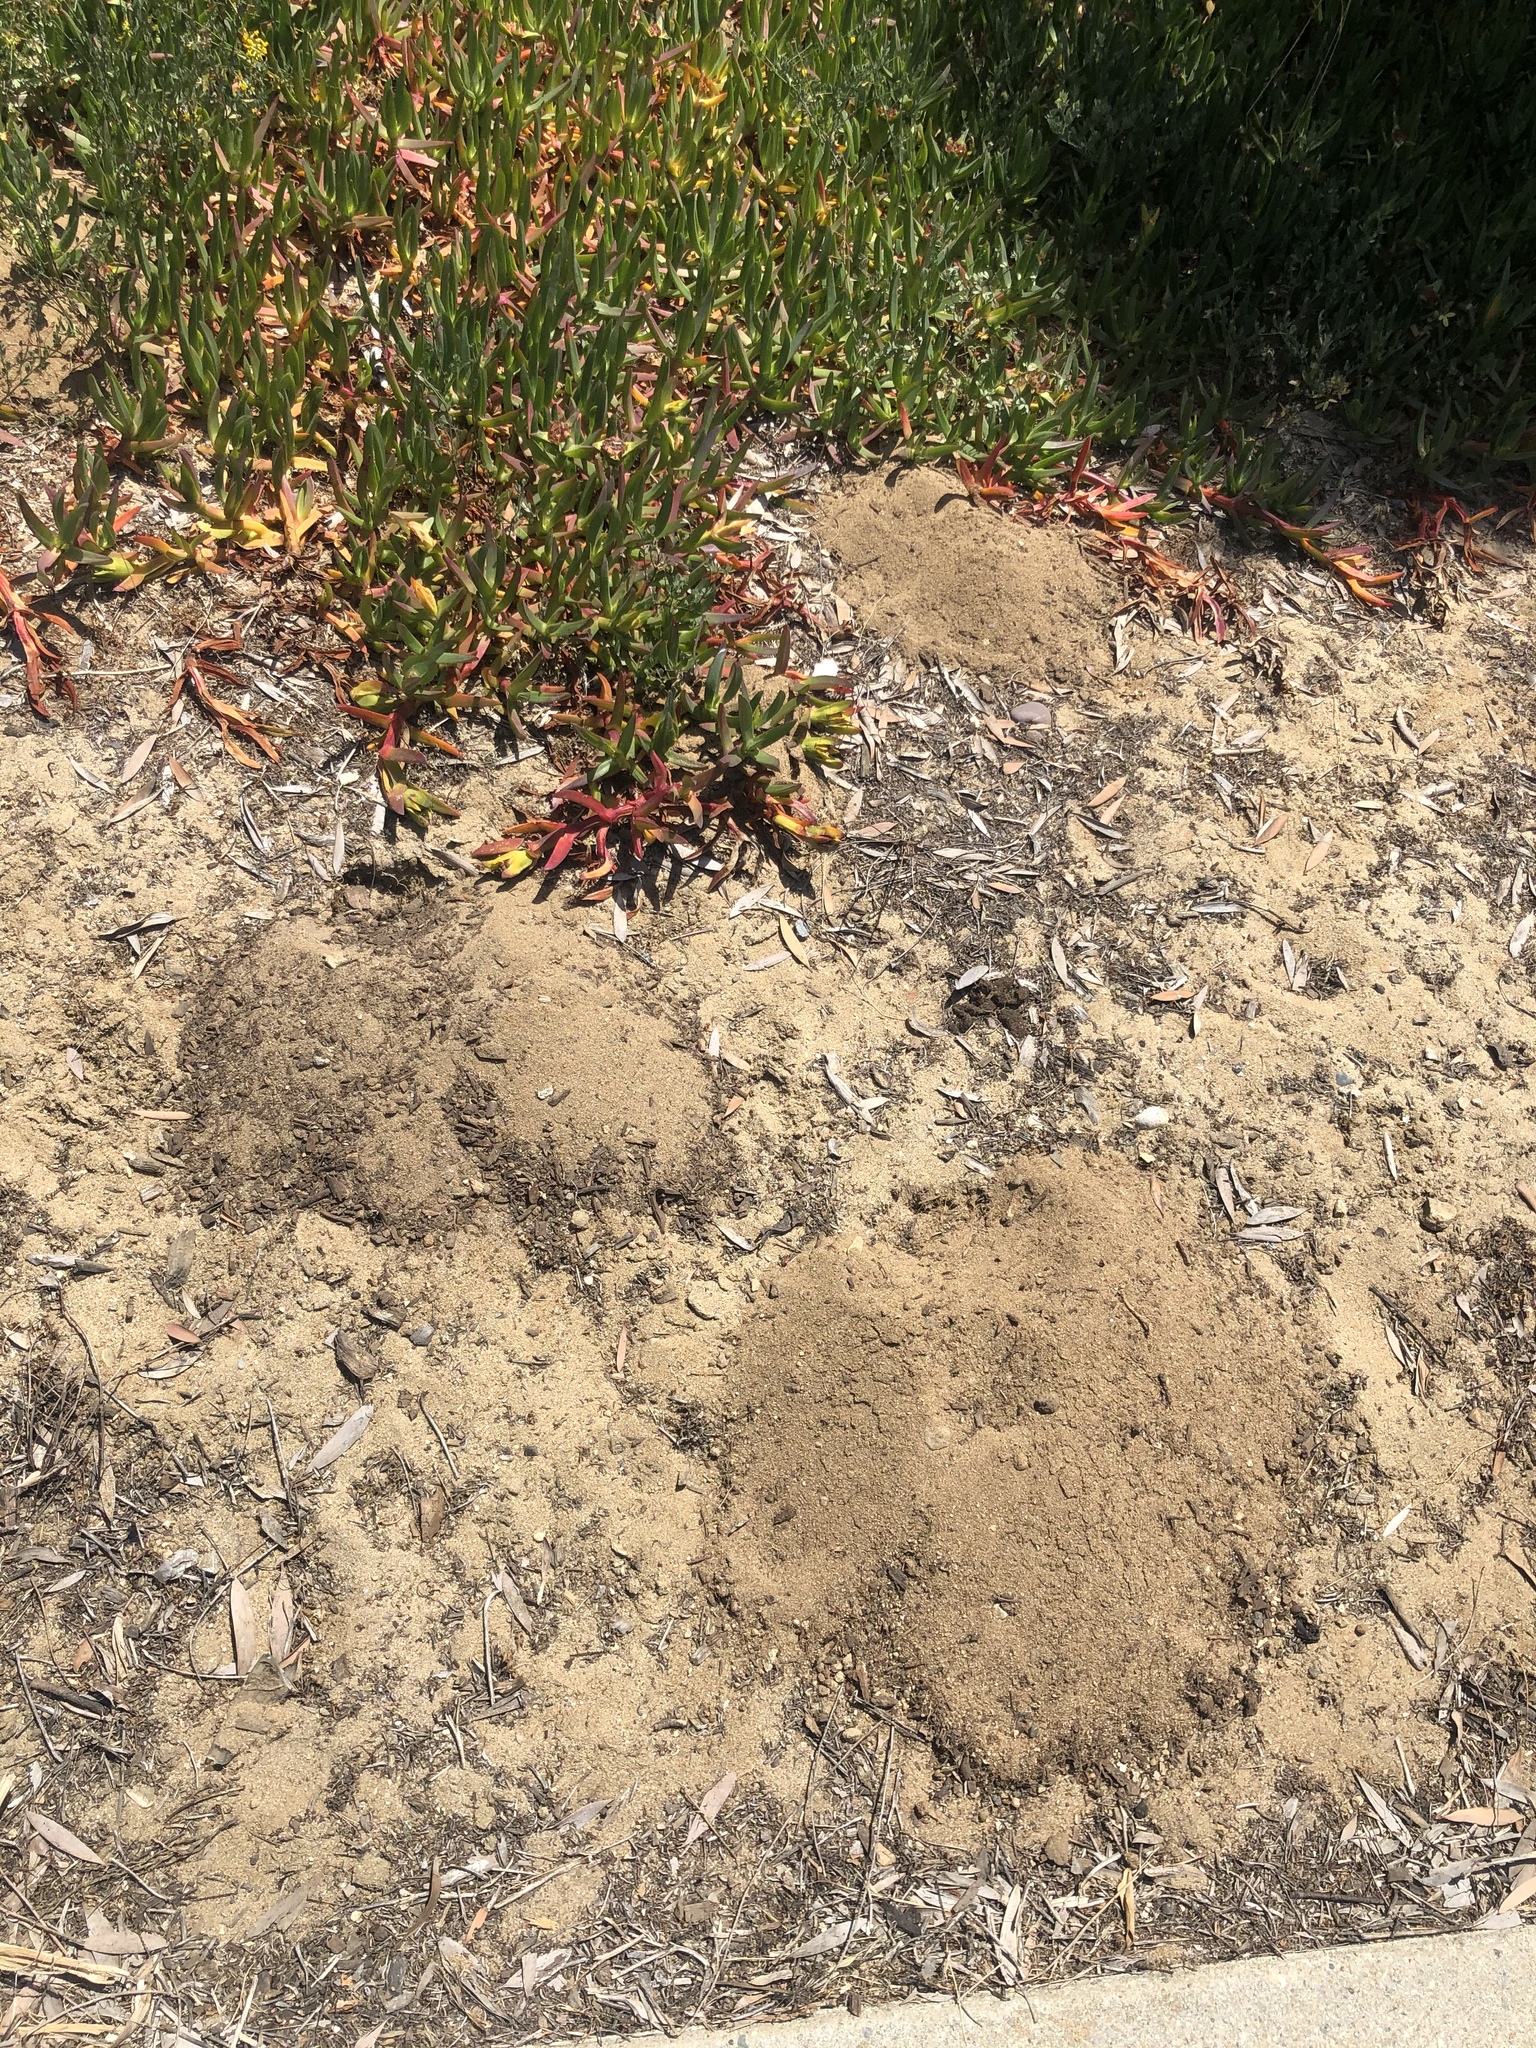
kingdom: Animalia
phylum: Chordata
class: Mammalia
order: Rodentia
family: Geomyidae
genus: Thomomys
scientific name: Thomomys bottae
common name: Botta's pocket gopher
